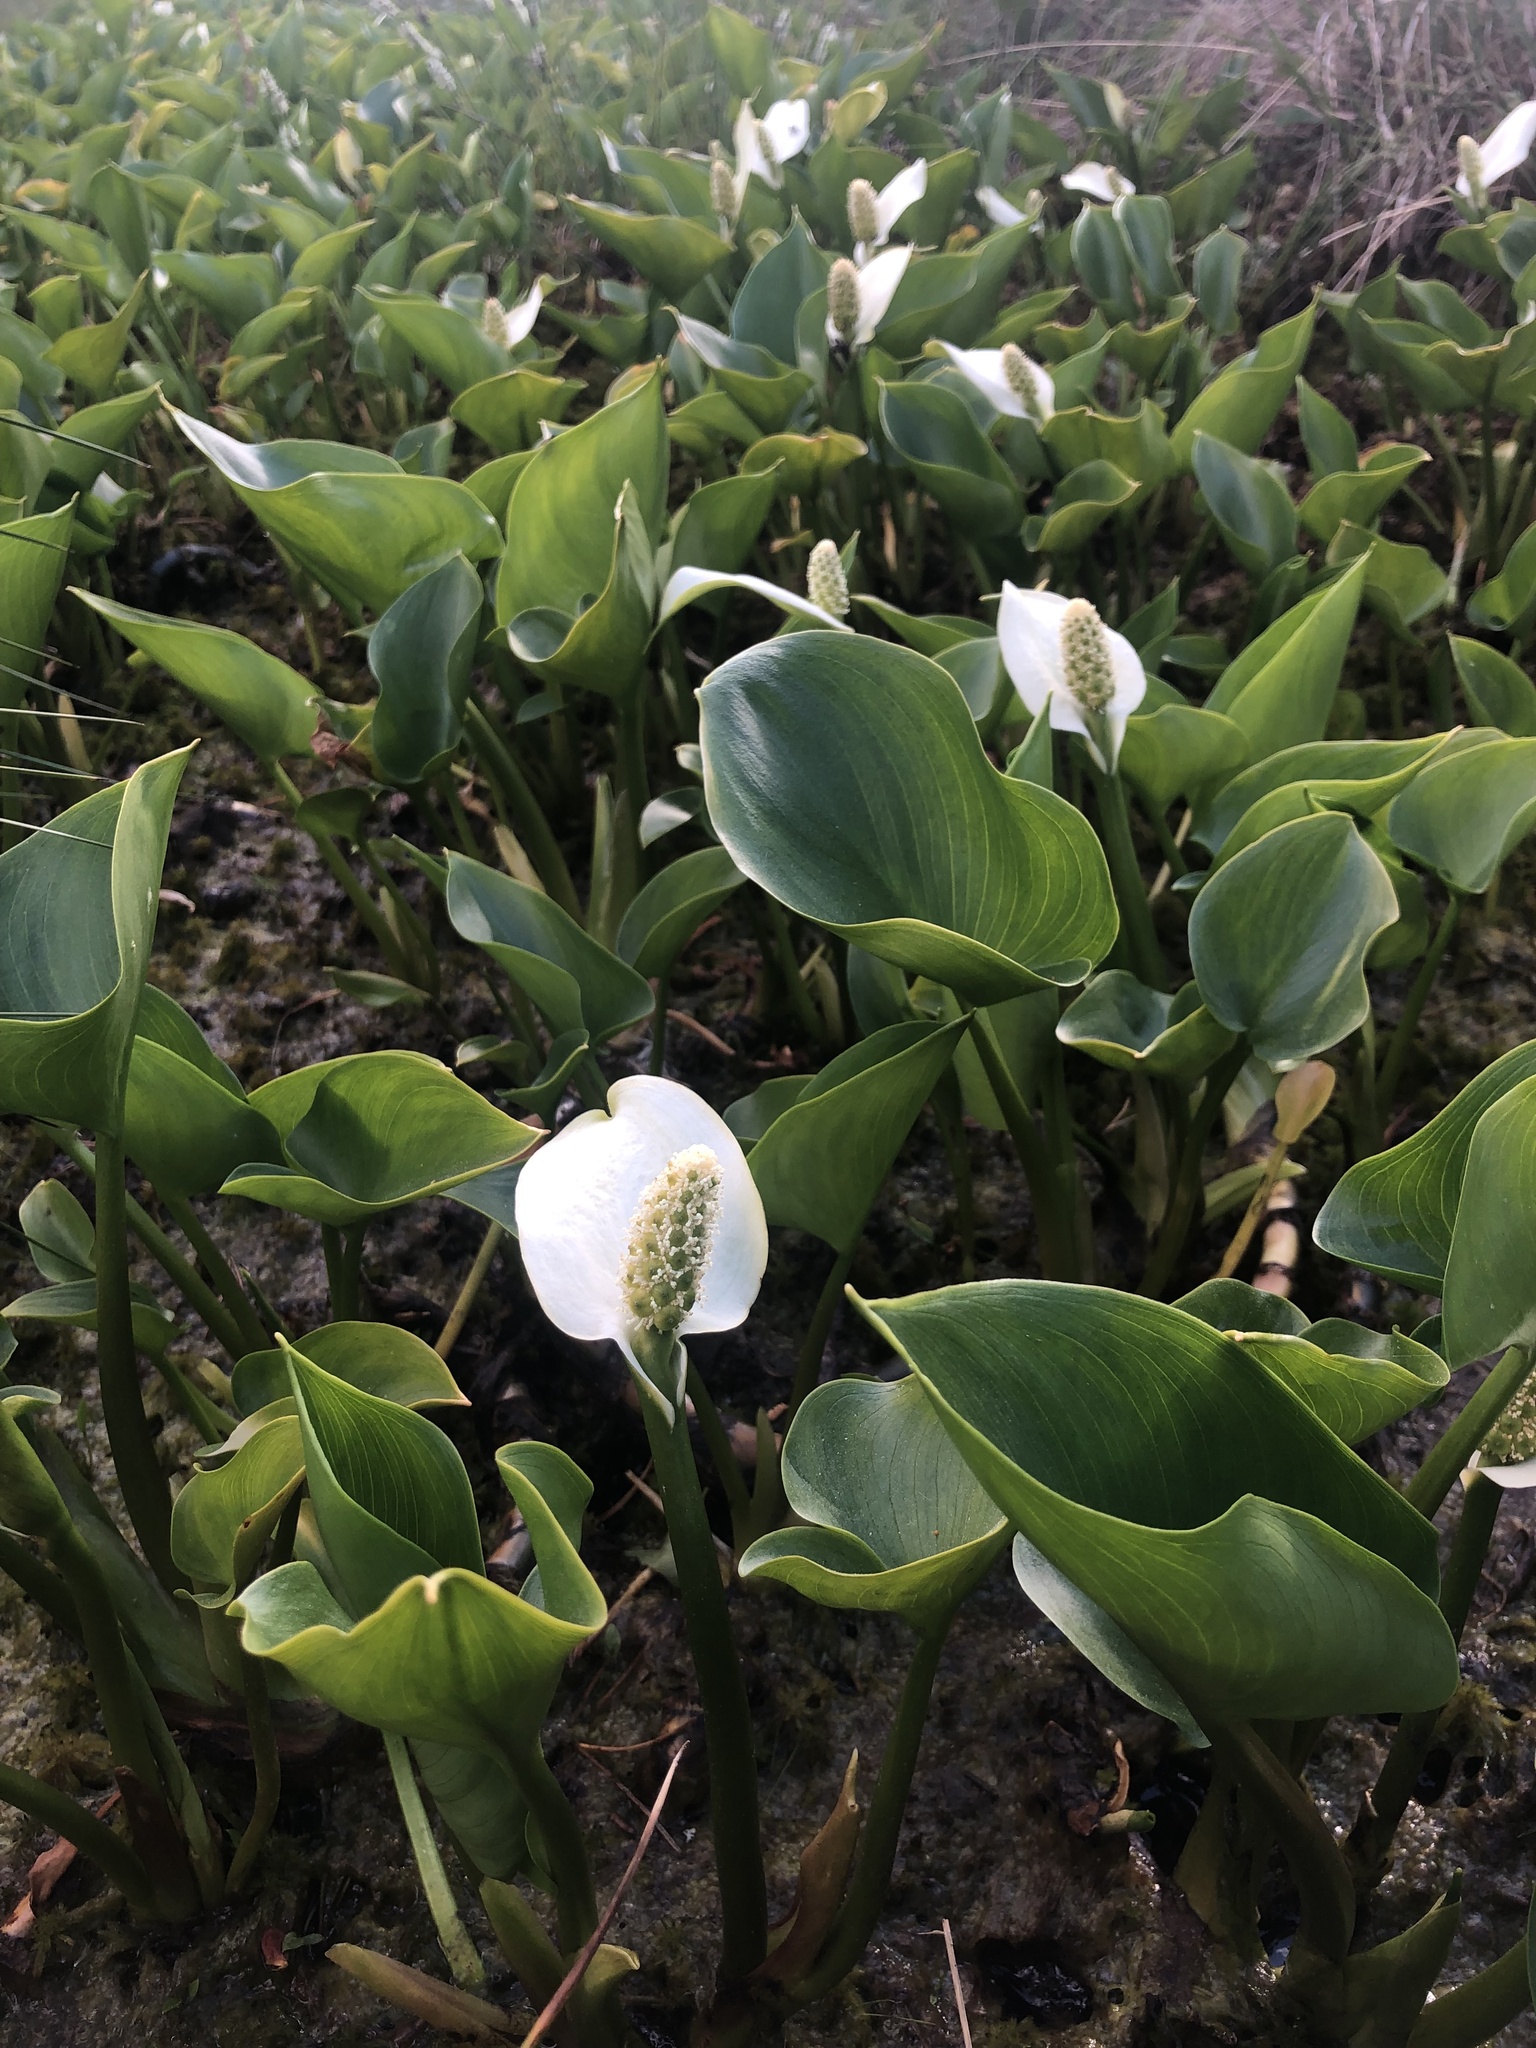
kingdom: Plantae
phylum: Tracheophyta
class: Liliopsida
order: Alismatales
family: Araceae
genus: Calla
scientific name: Calla palustris
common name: Bog arum
